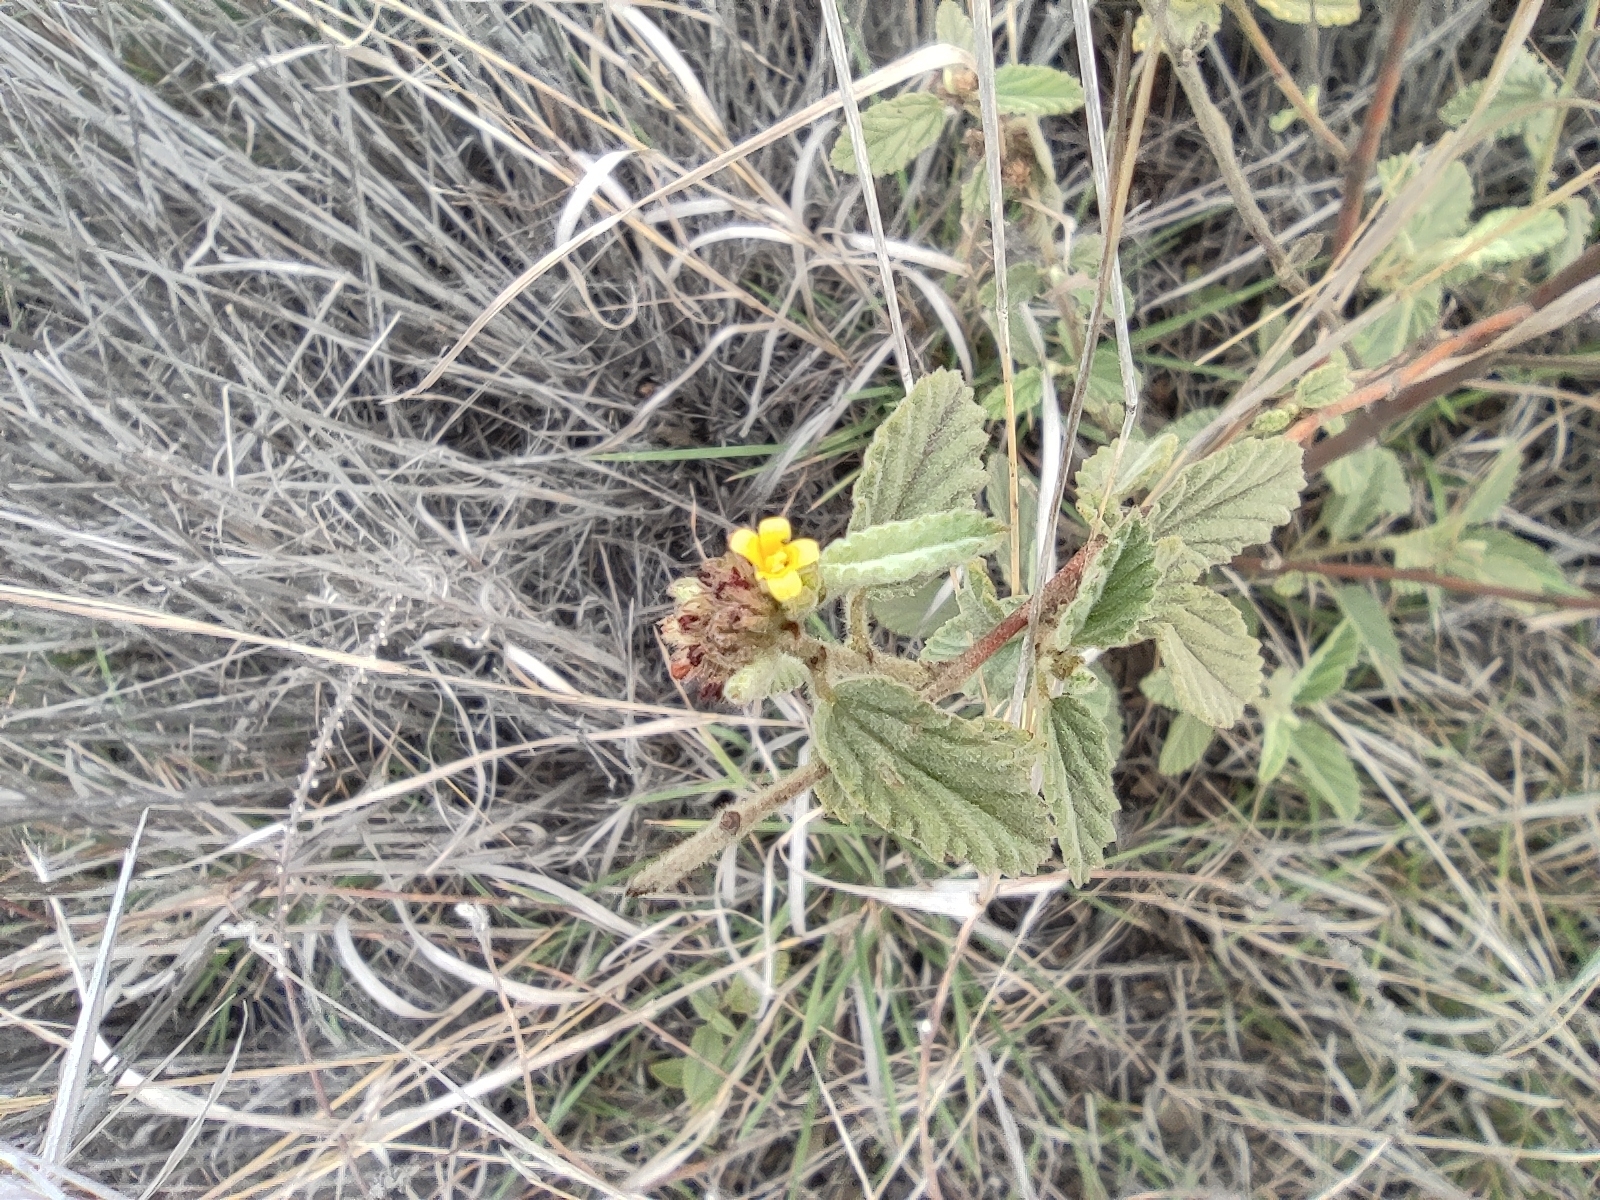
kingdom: Plantae
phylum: Tracheophyta
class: Magnoliopsida
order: Malvales
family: Malvaceae
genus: Waltheria
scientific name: Waltheria indica
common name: Leather-coat
